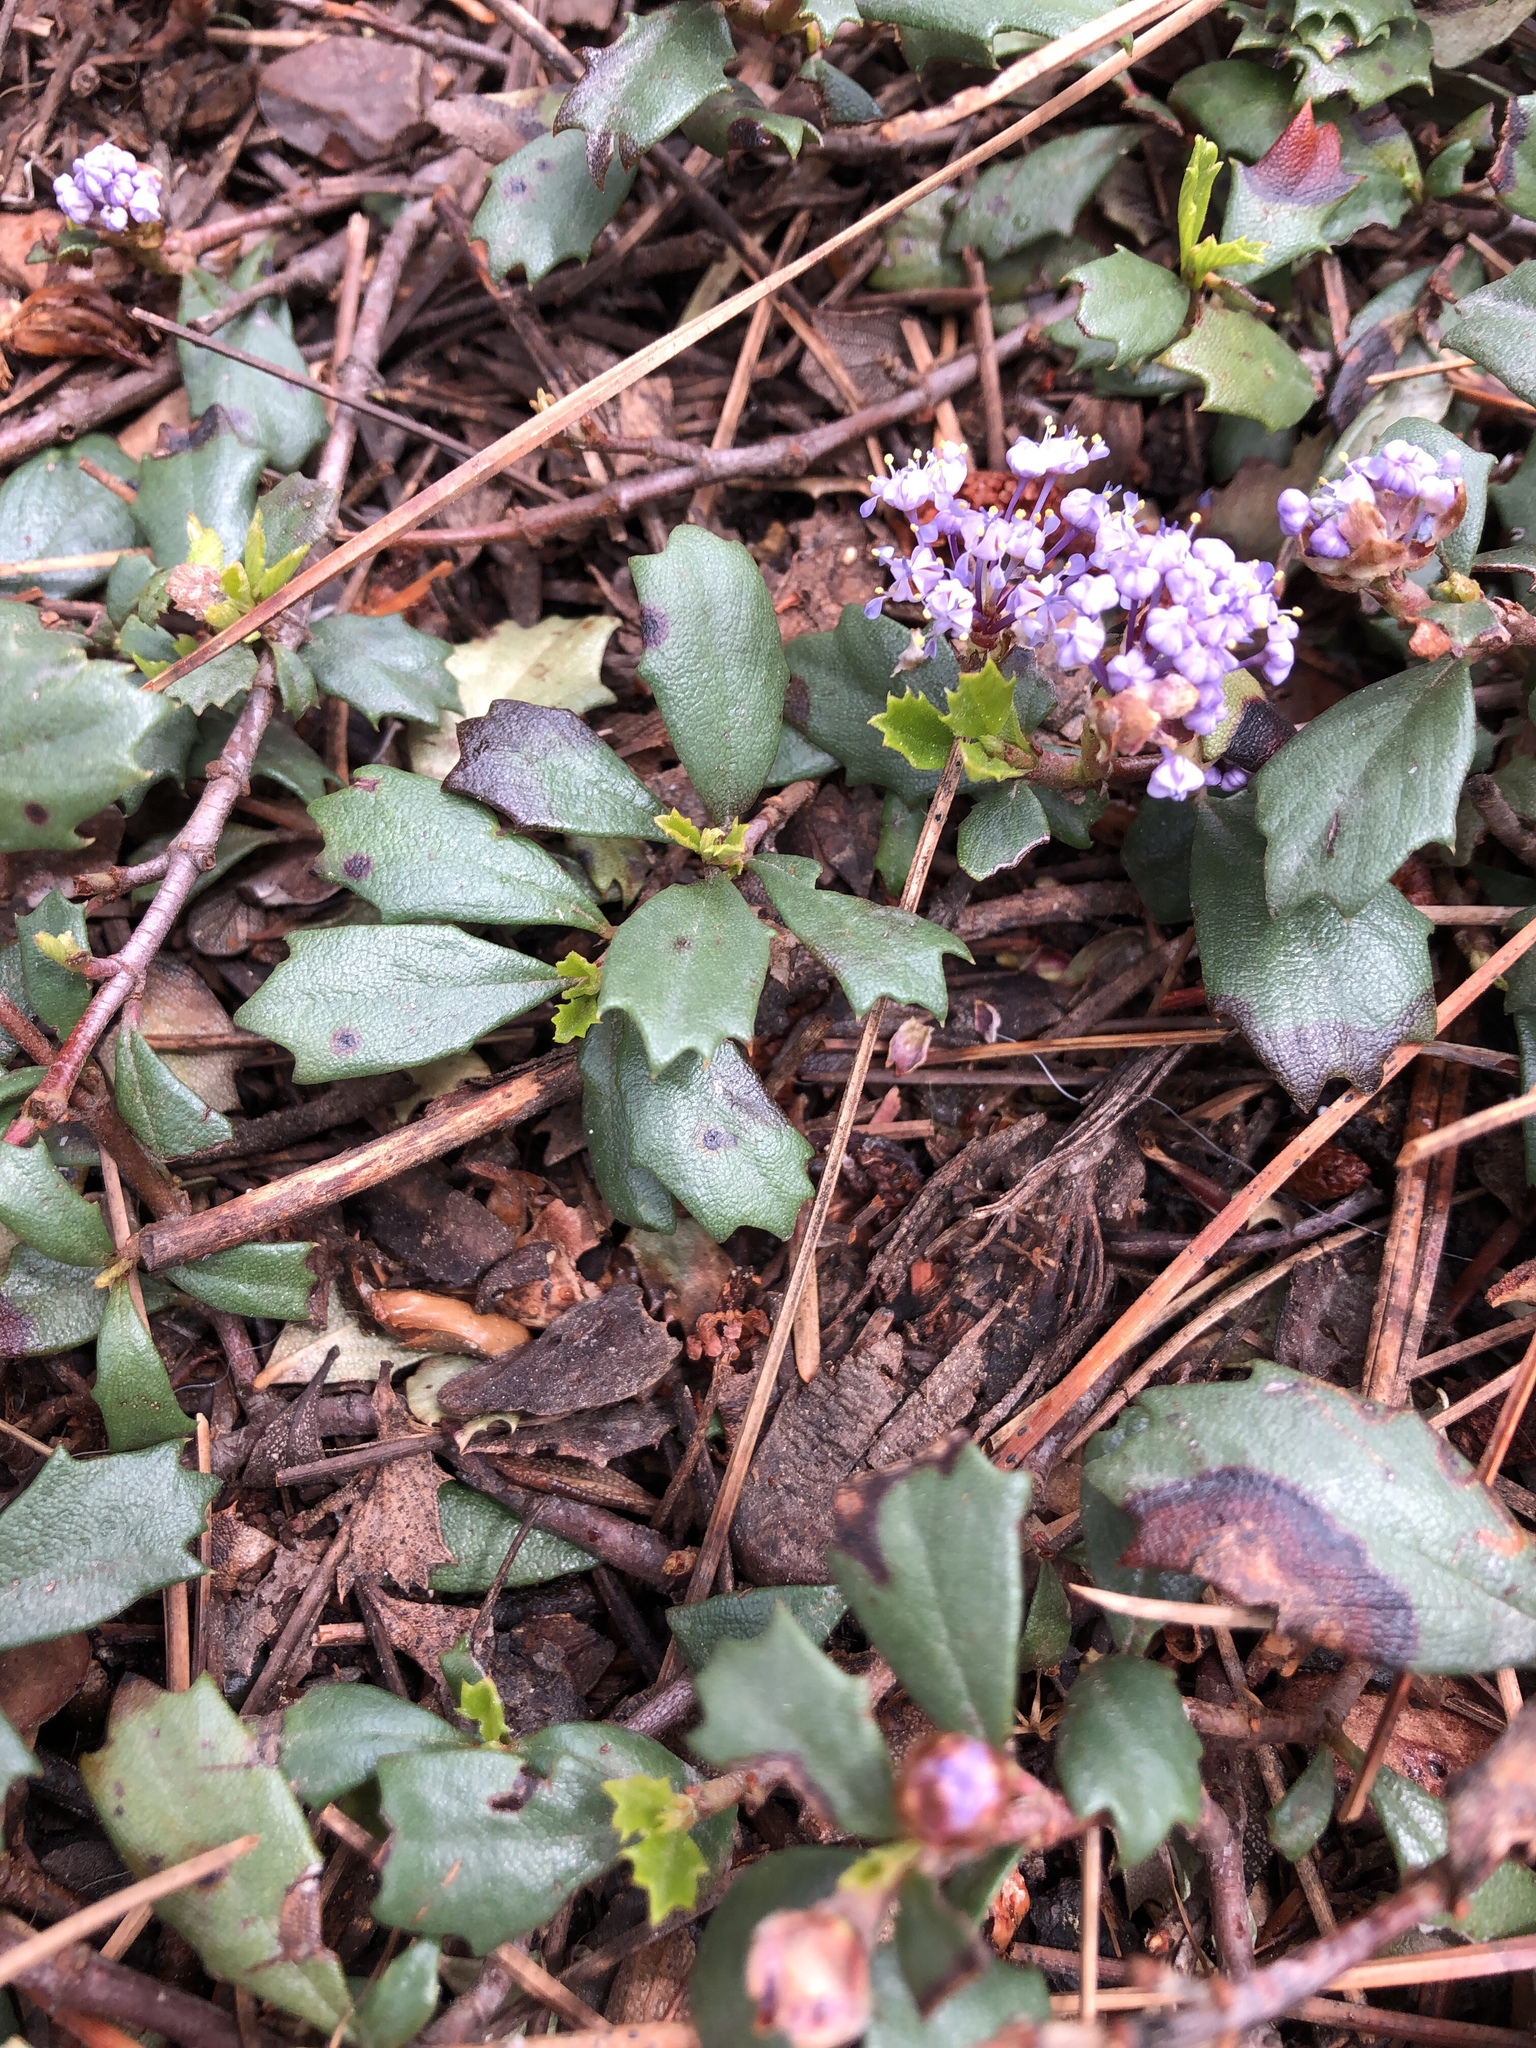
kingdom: Plantae
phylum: Tracheophyta
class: Magnoliopsida
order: Rosales
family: Rhamnaceae
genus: Ceanothus
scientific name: Ceanothus prostratus
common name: Mahala-mat
